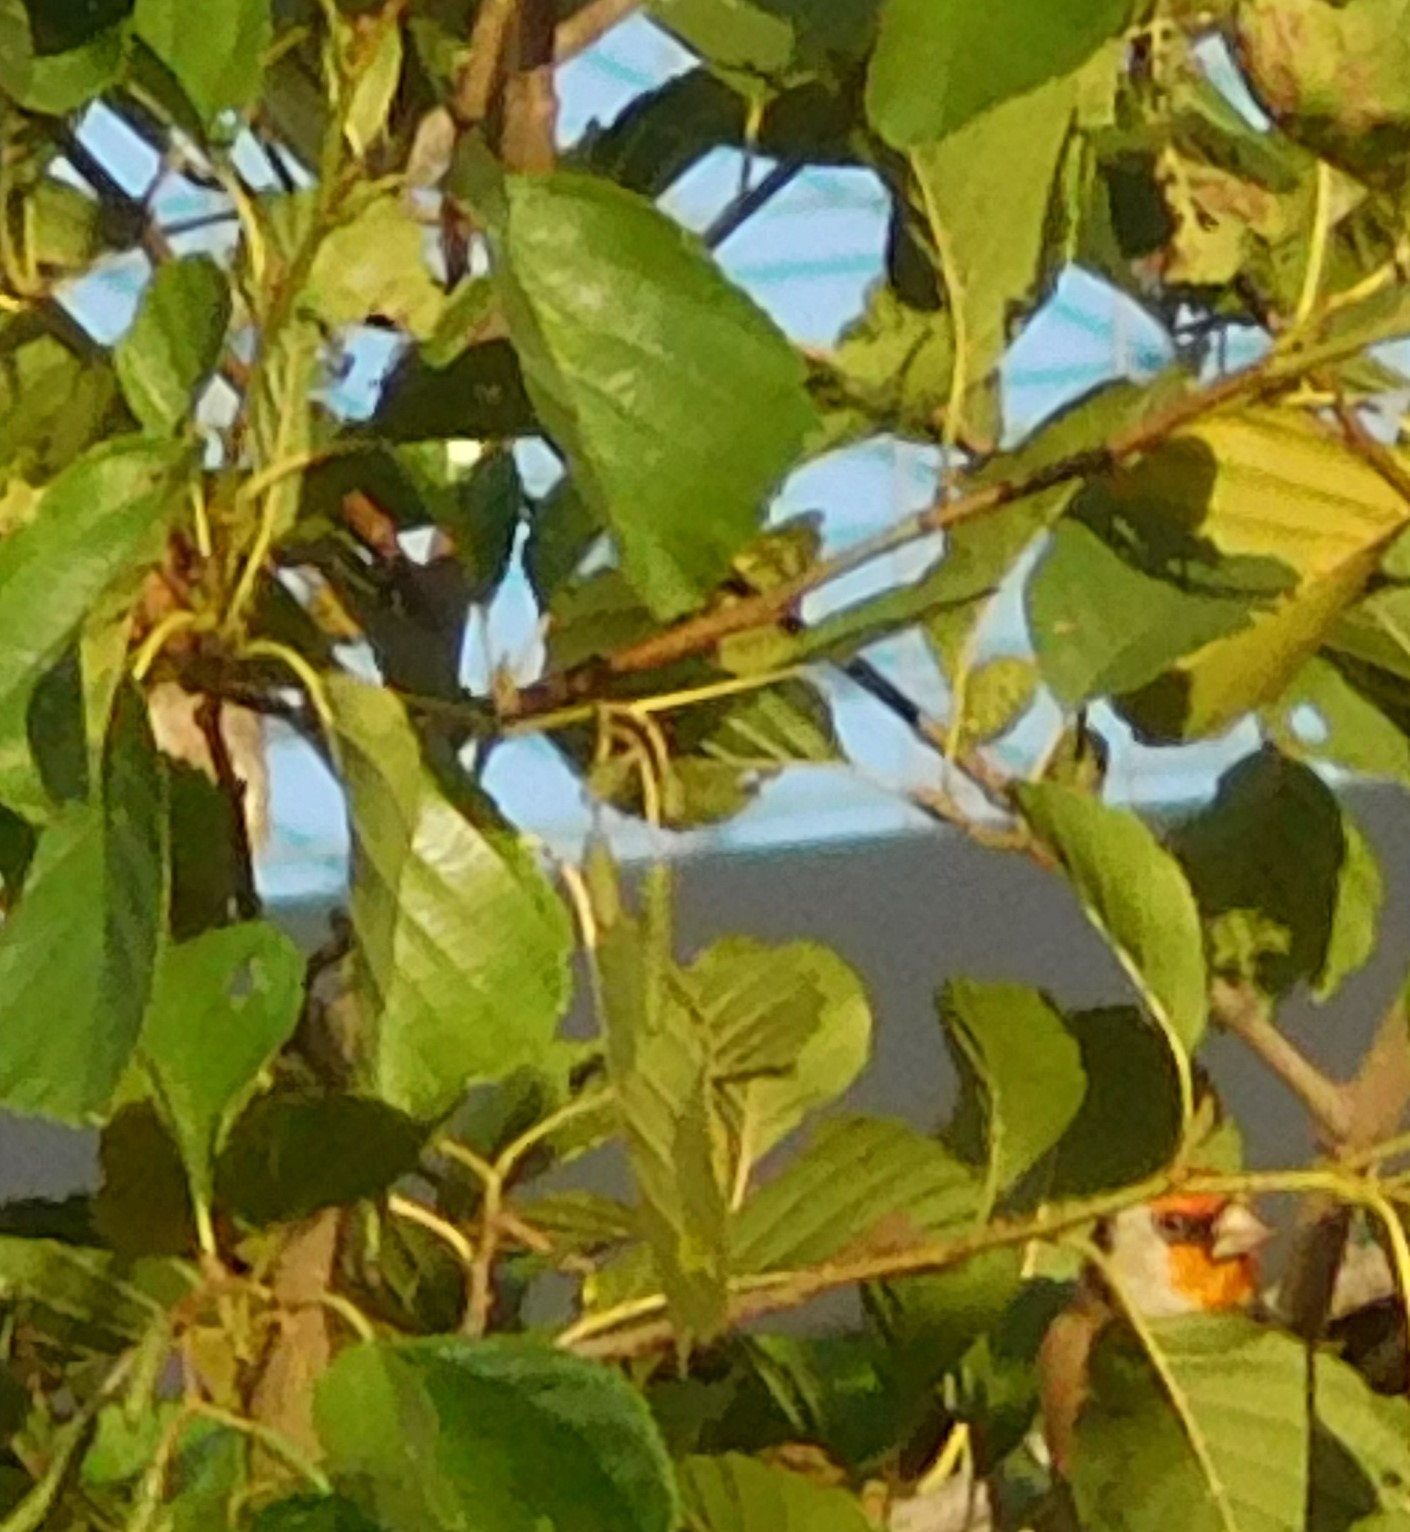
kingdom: Animalia
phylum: Chordata
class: Aves
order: Passeriformes
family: Fringillidae
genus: Carduelis
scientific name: Carduelis carduelis
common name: European goldfinch
